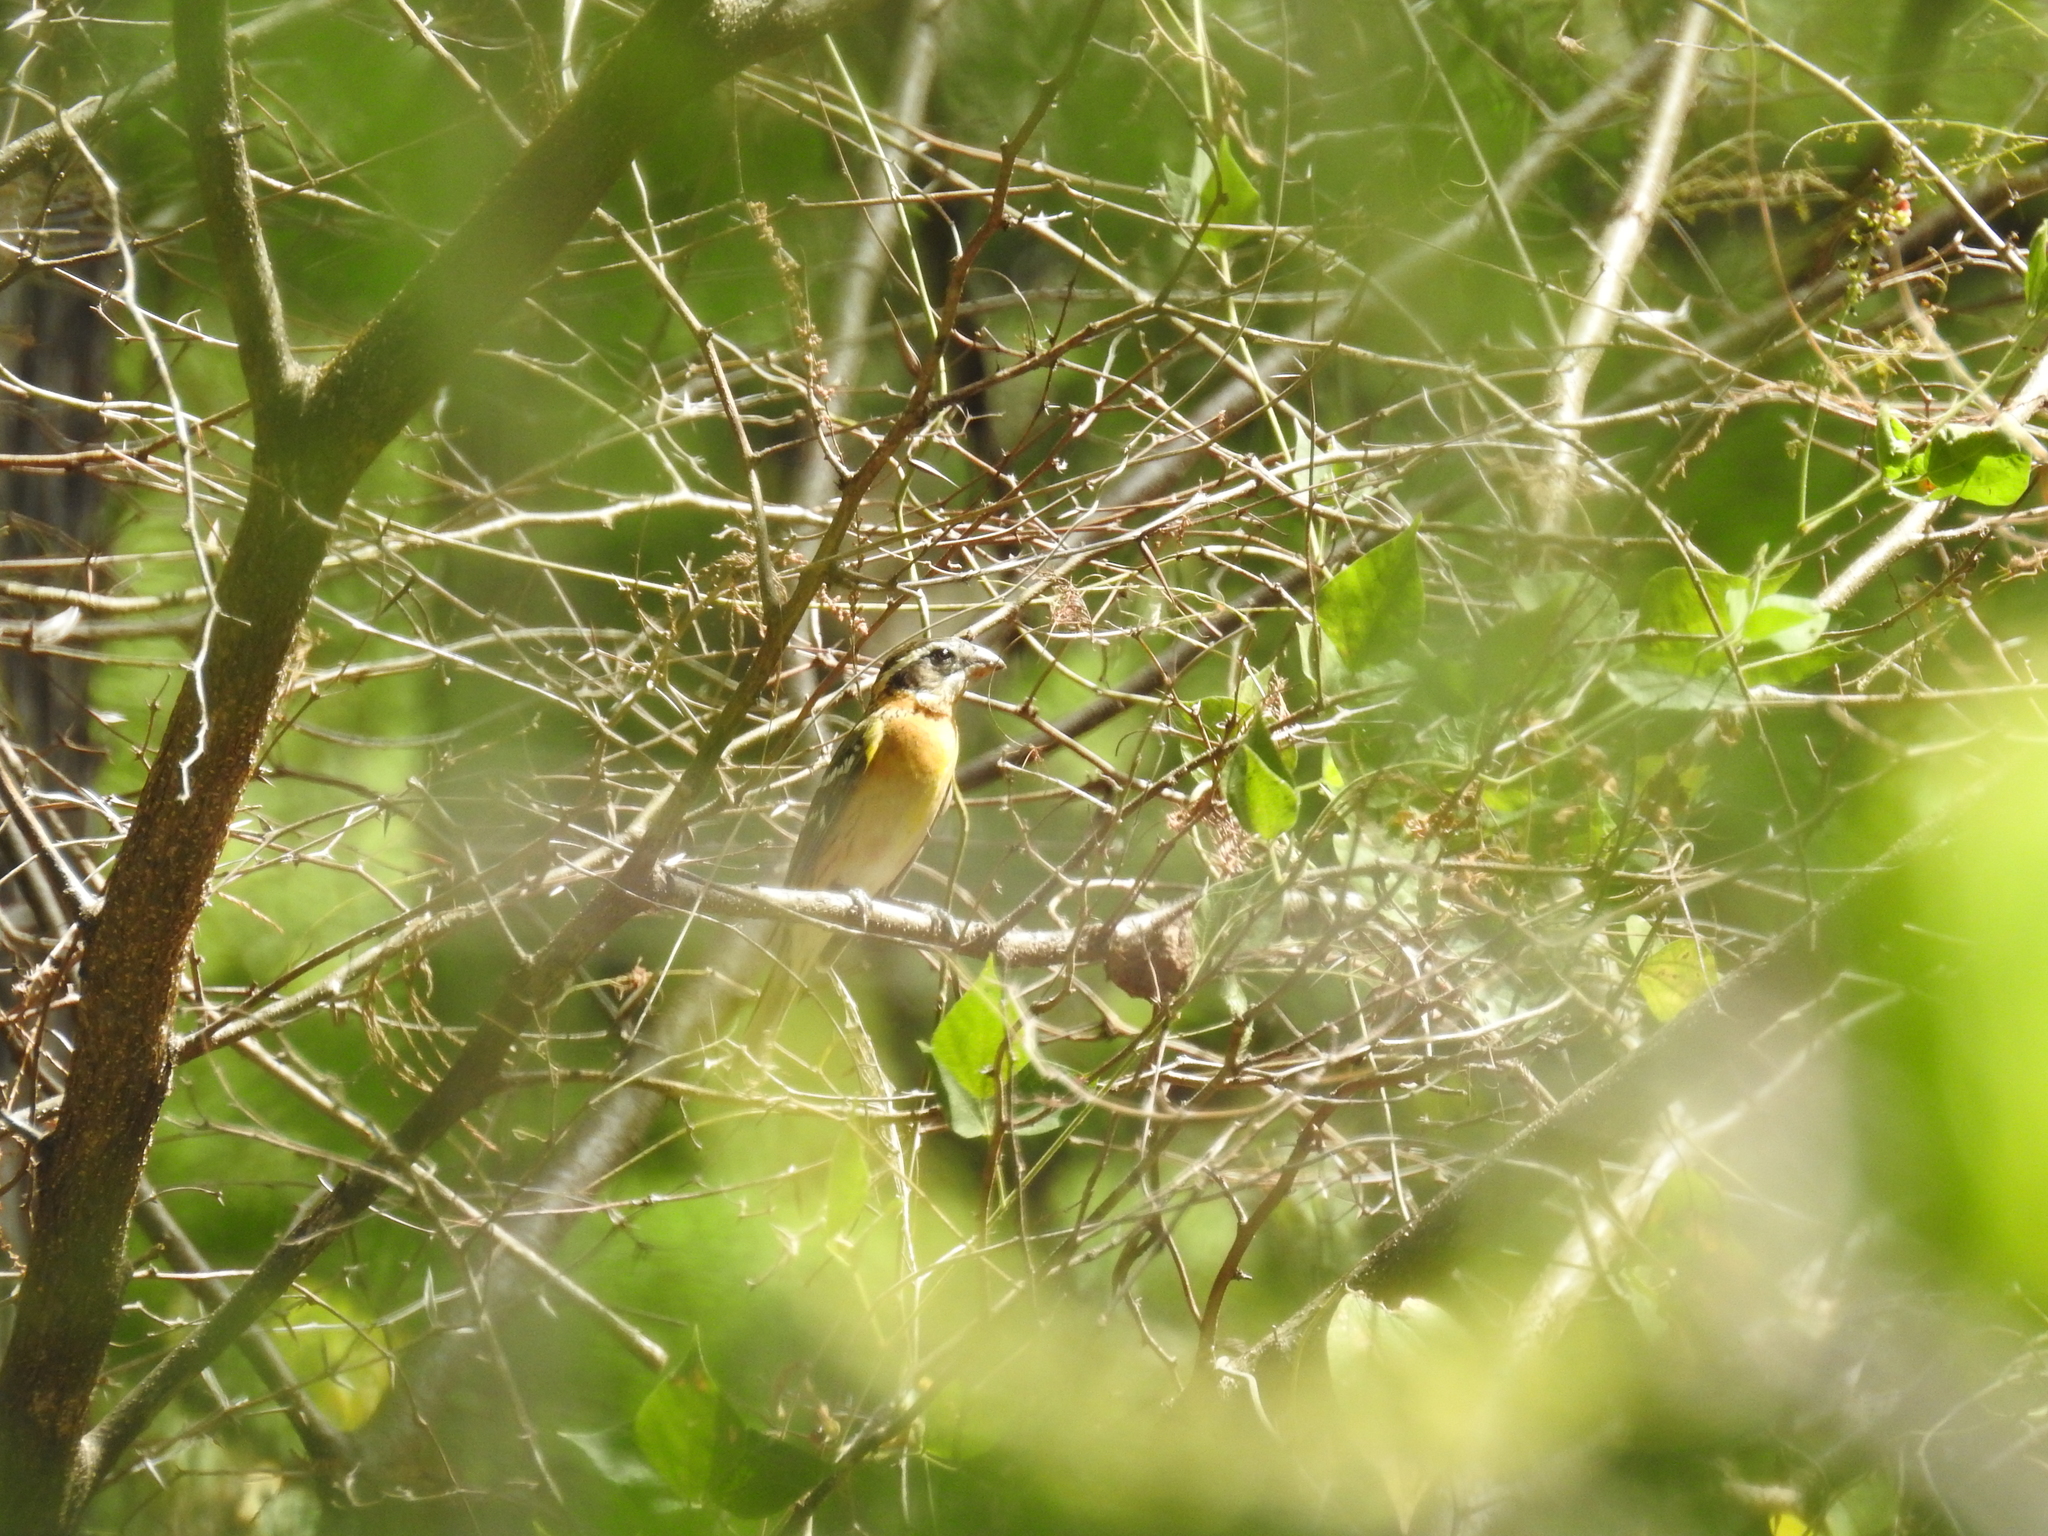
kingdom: Animalia
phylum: Chordata
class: Aves
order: Passeriformes
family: Cardinalidae
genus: Pheucticus
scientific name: Pheucticus melanocephalus
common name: Black-headed grosbeak
